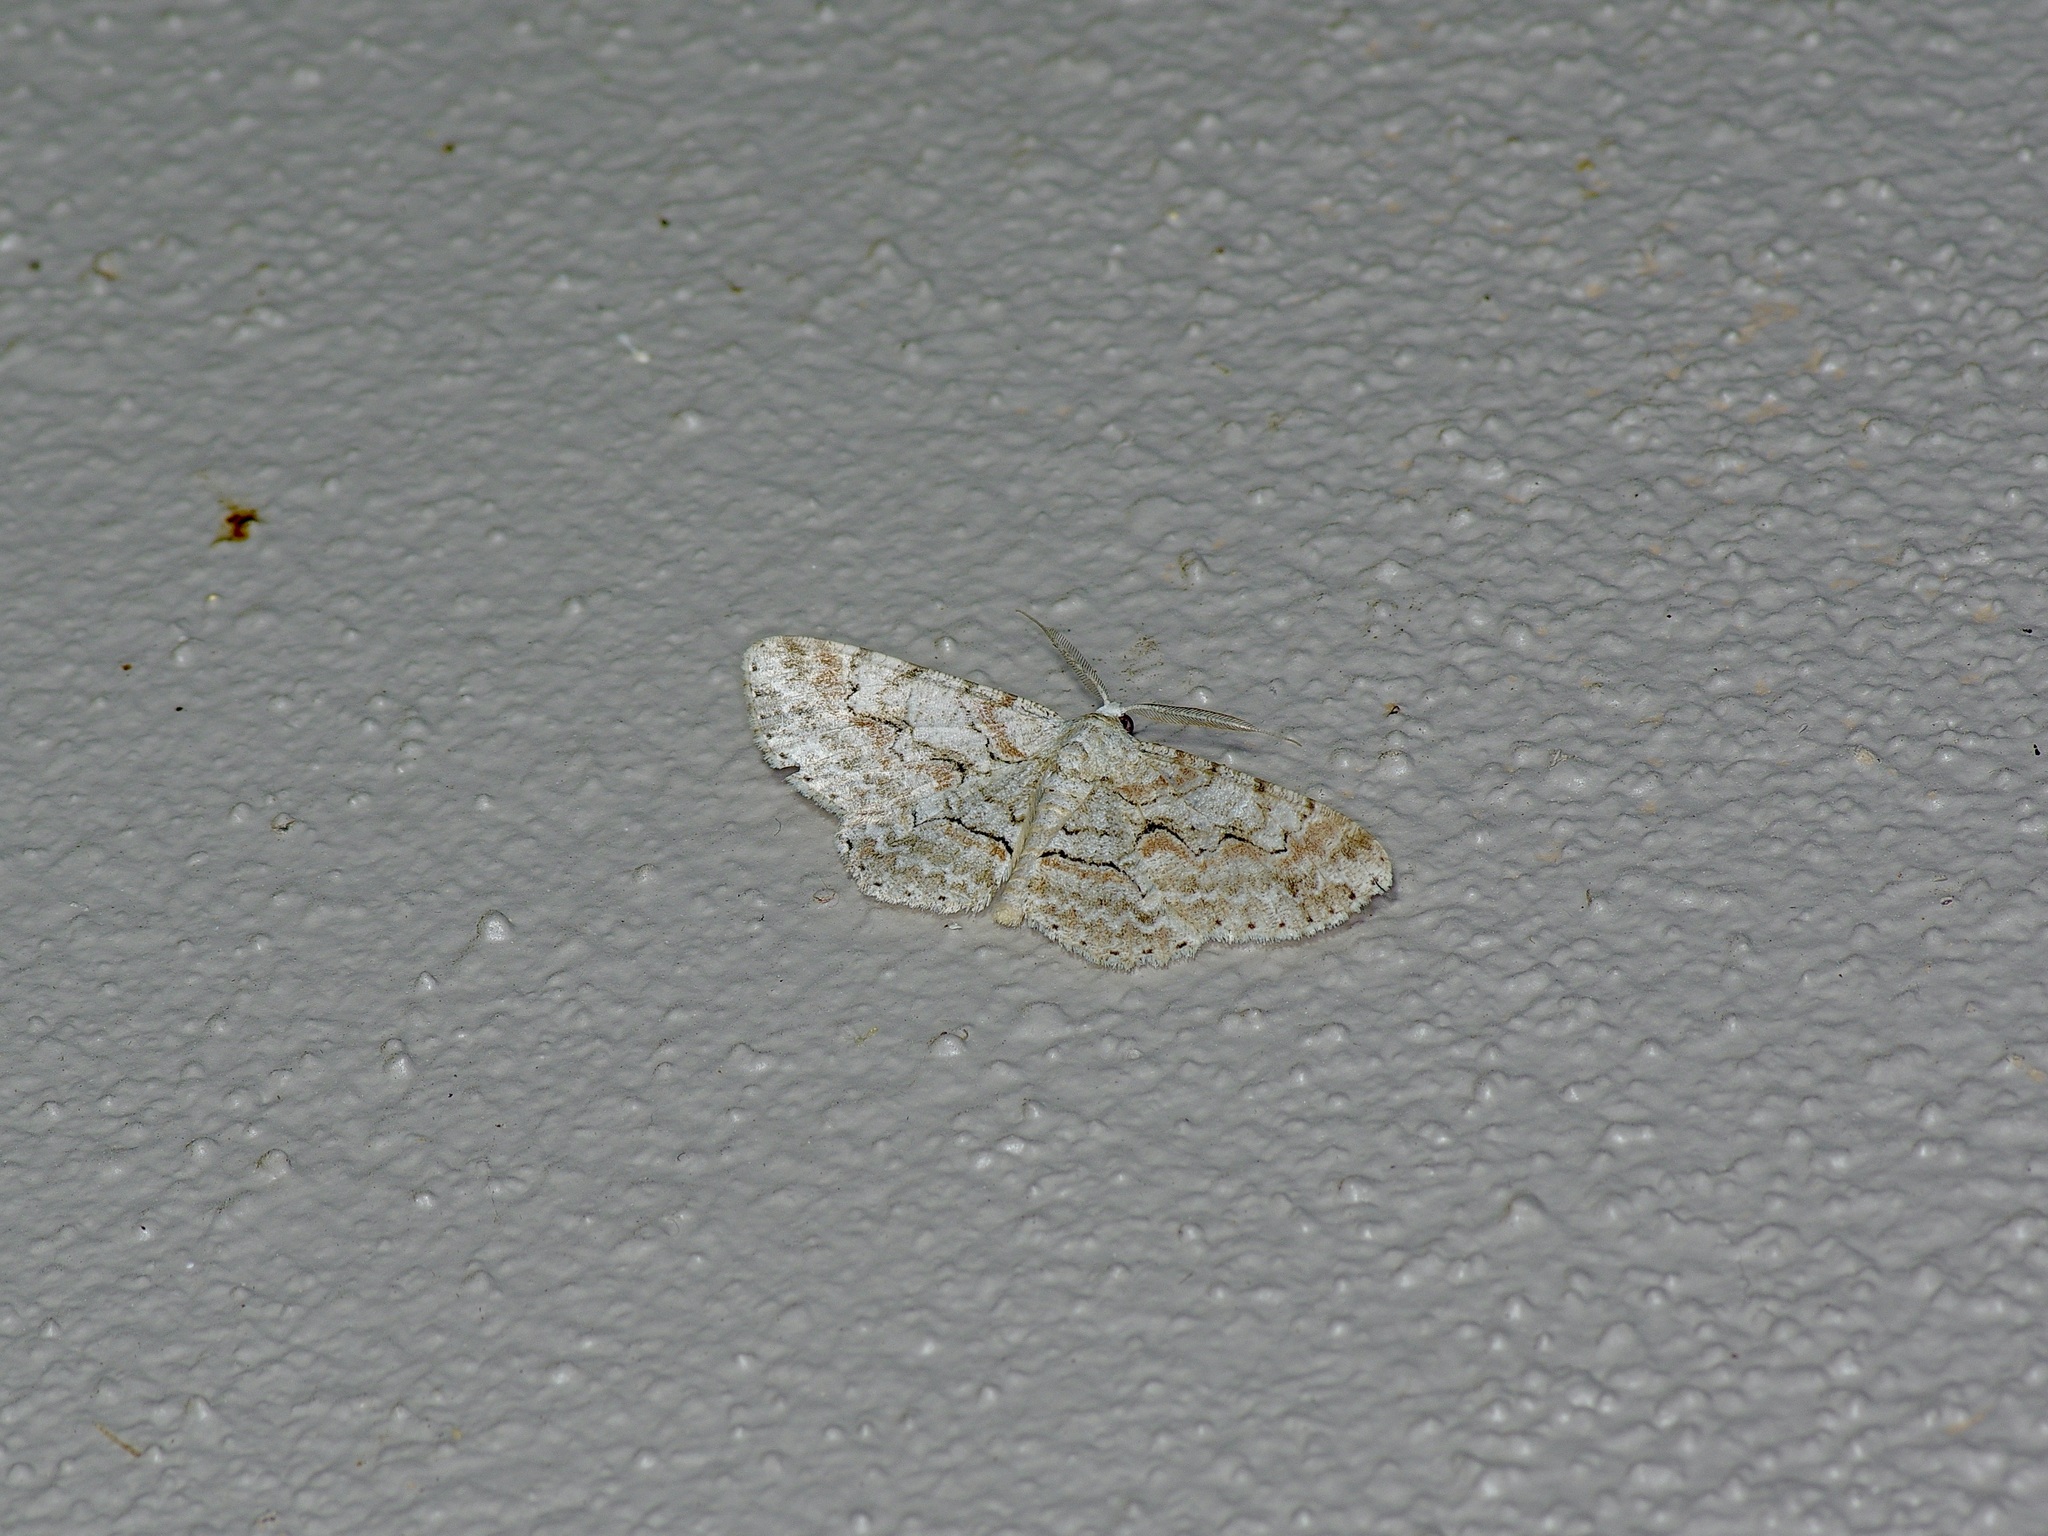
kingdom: Animalia
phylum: Arthropoda
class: Insecta
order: Lepidoptera
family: Geometridae
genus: Iridopsis
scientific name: Iridopsis defectaria
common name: Brown-shaded gray
